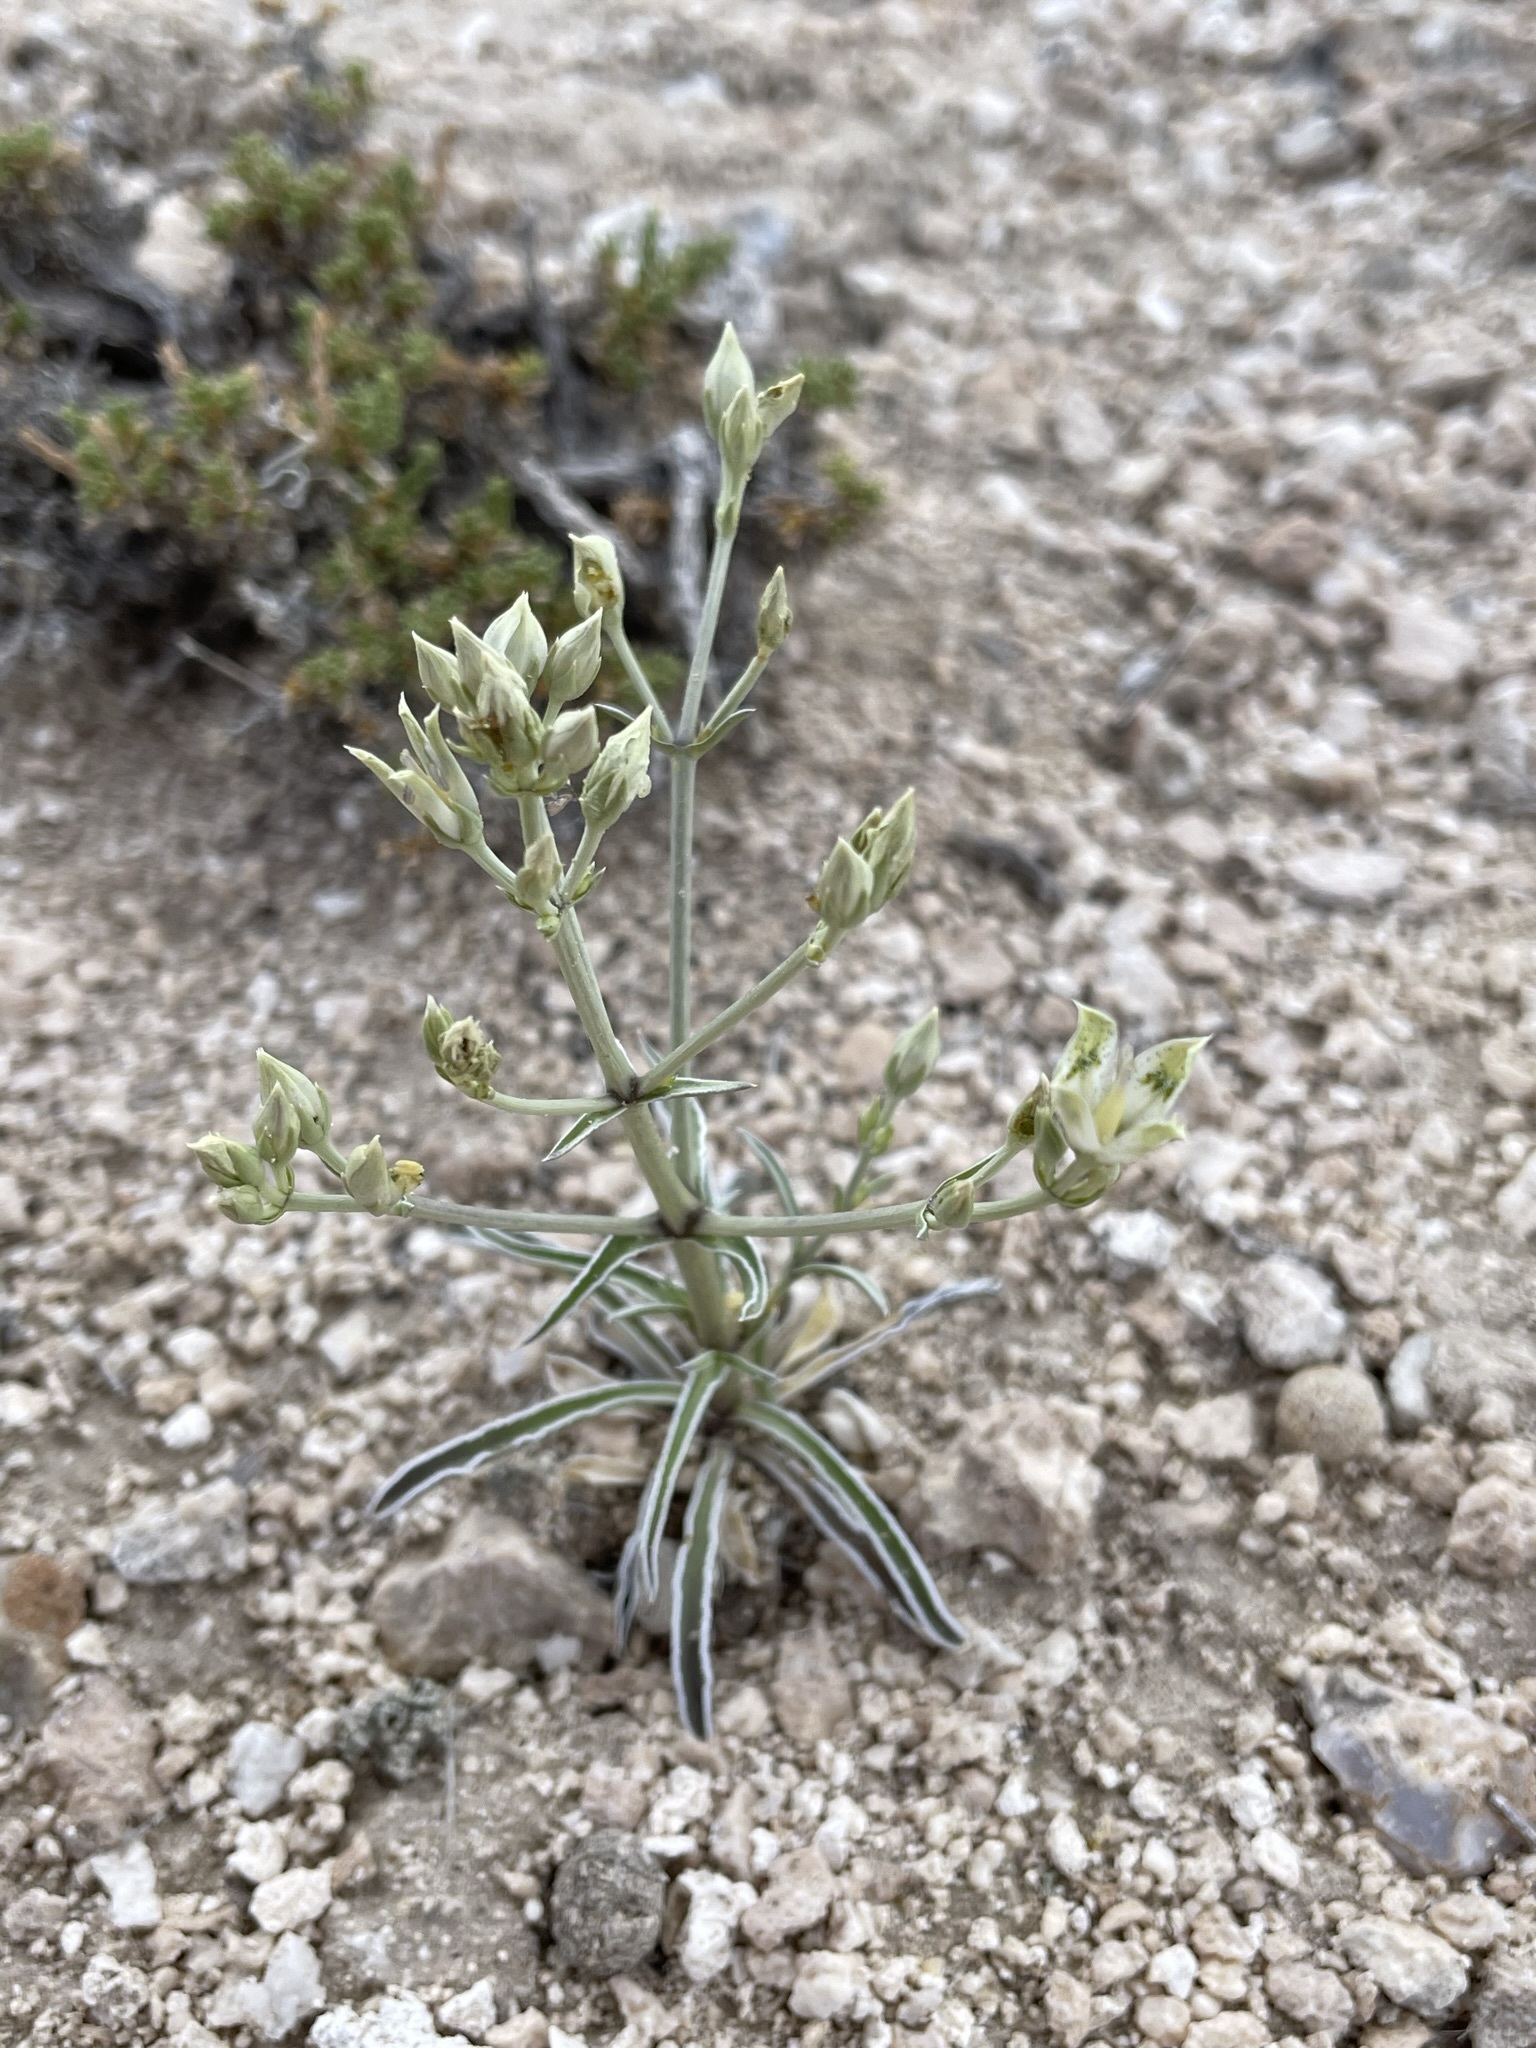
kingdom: Plantae
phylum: Tracheophyta
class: Magnoliopsida
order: Gentianales
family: Gentianaceae
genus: Frasera
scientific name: Frasera albomarginata
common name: Desert frasera
